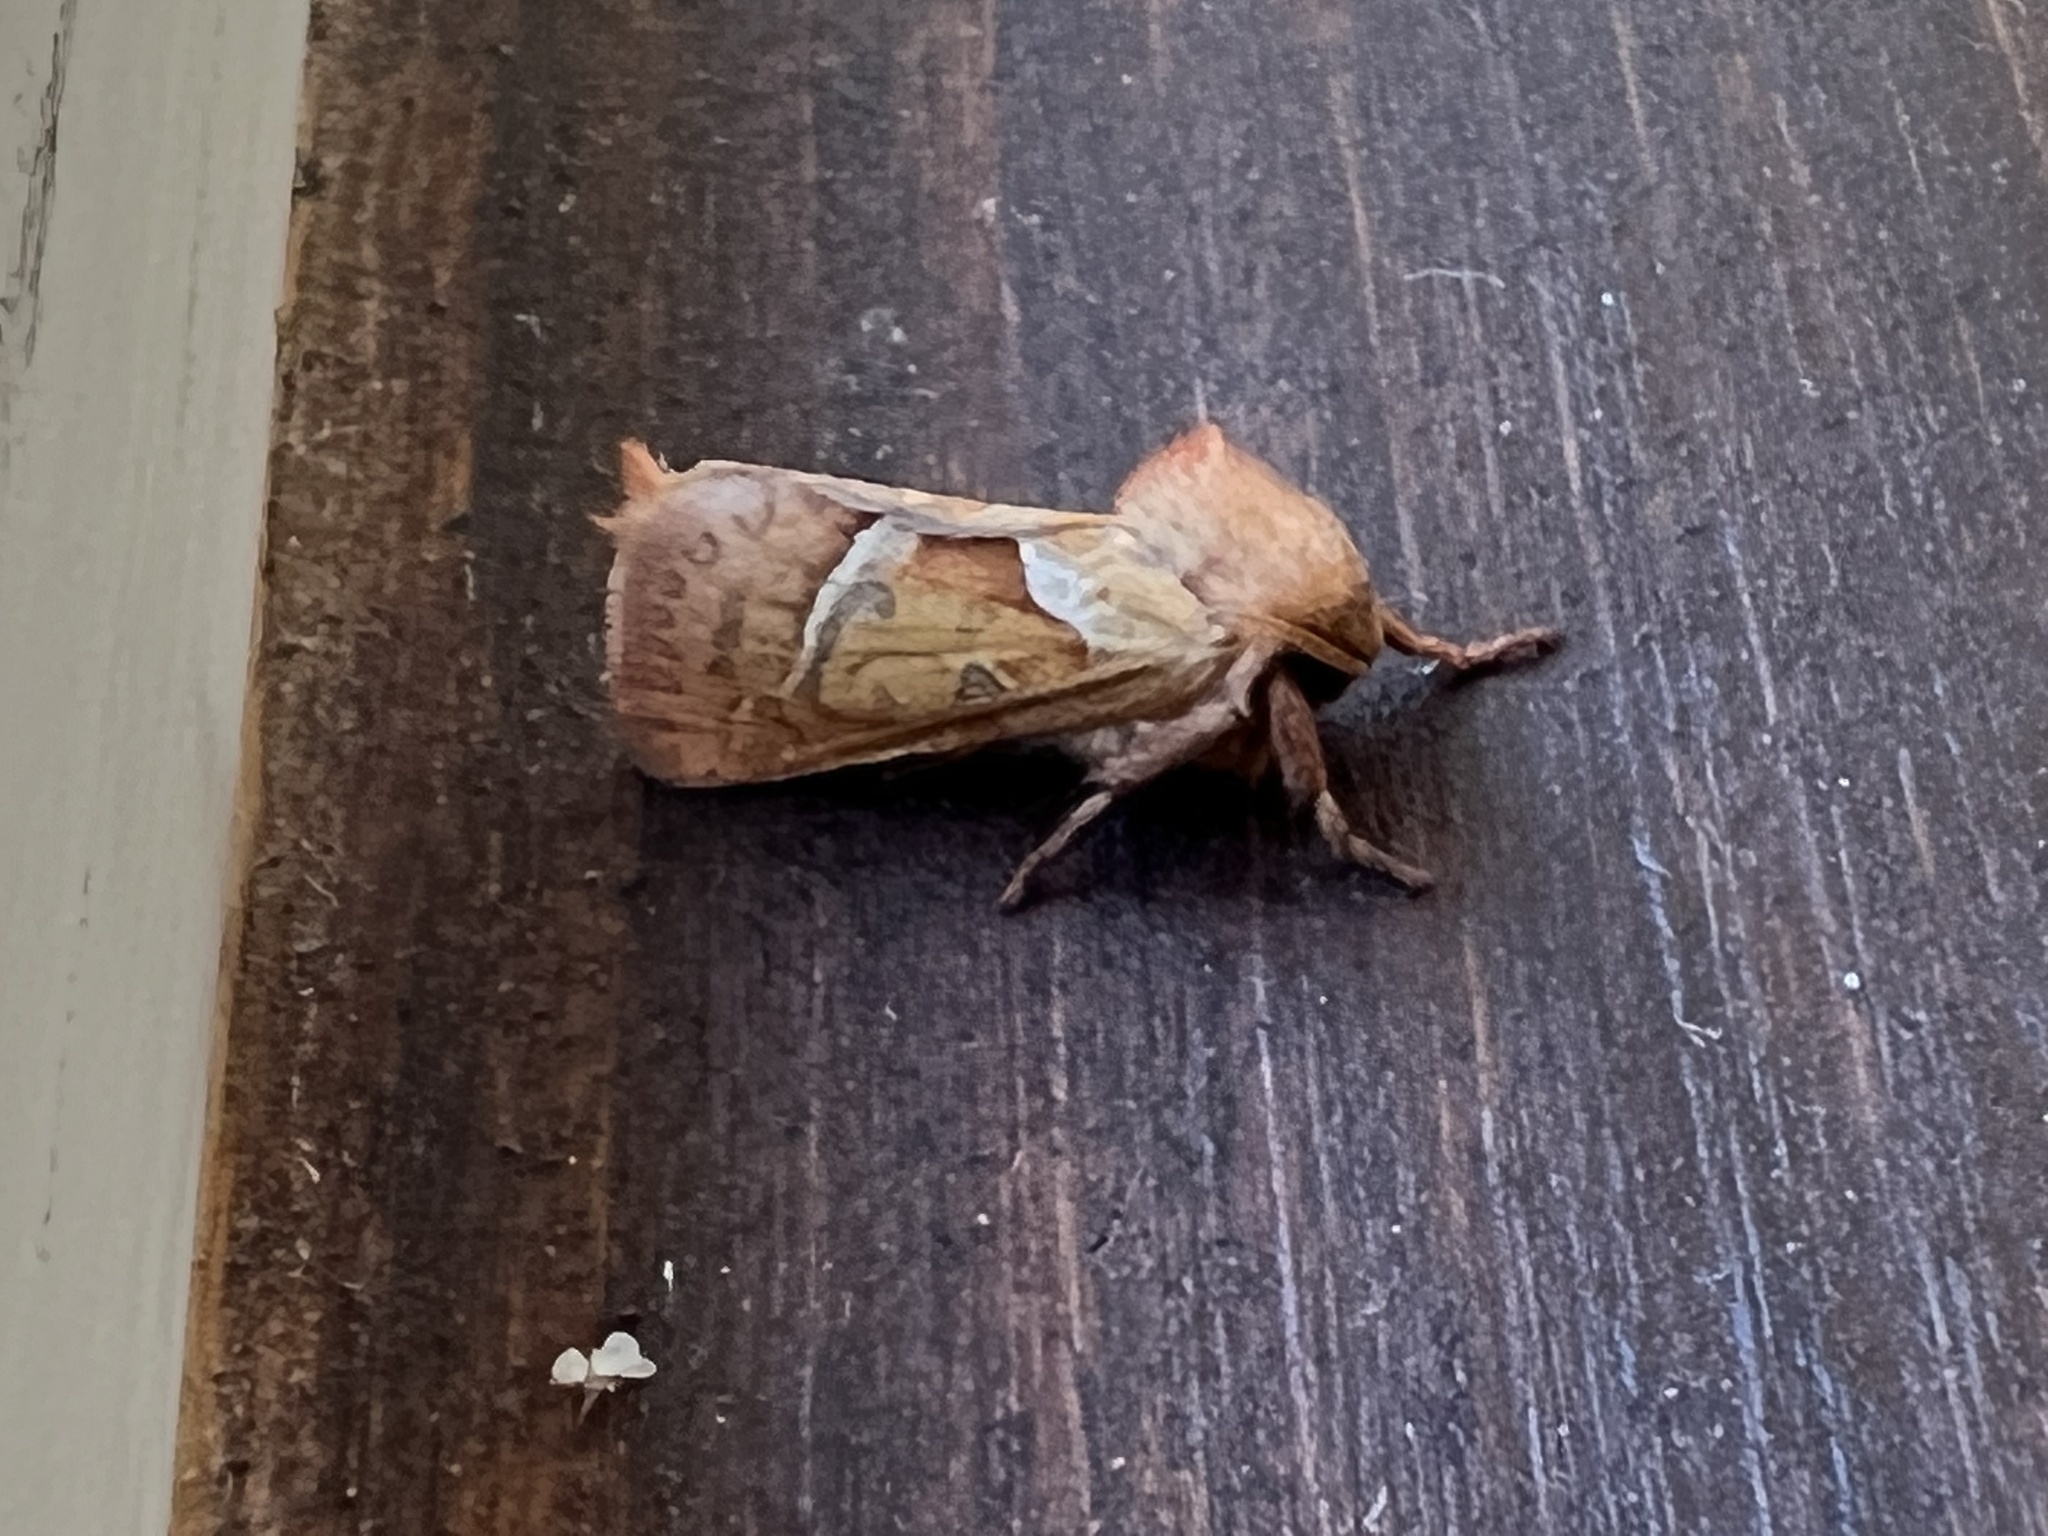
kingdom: Animalia
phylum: Arthropoda
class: Insecta
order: Lepidoptera
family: Hepialidae
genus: Triodia
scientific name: Triodia sylvina
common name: Orange swift
